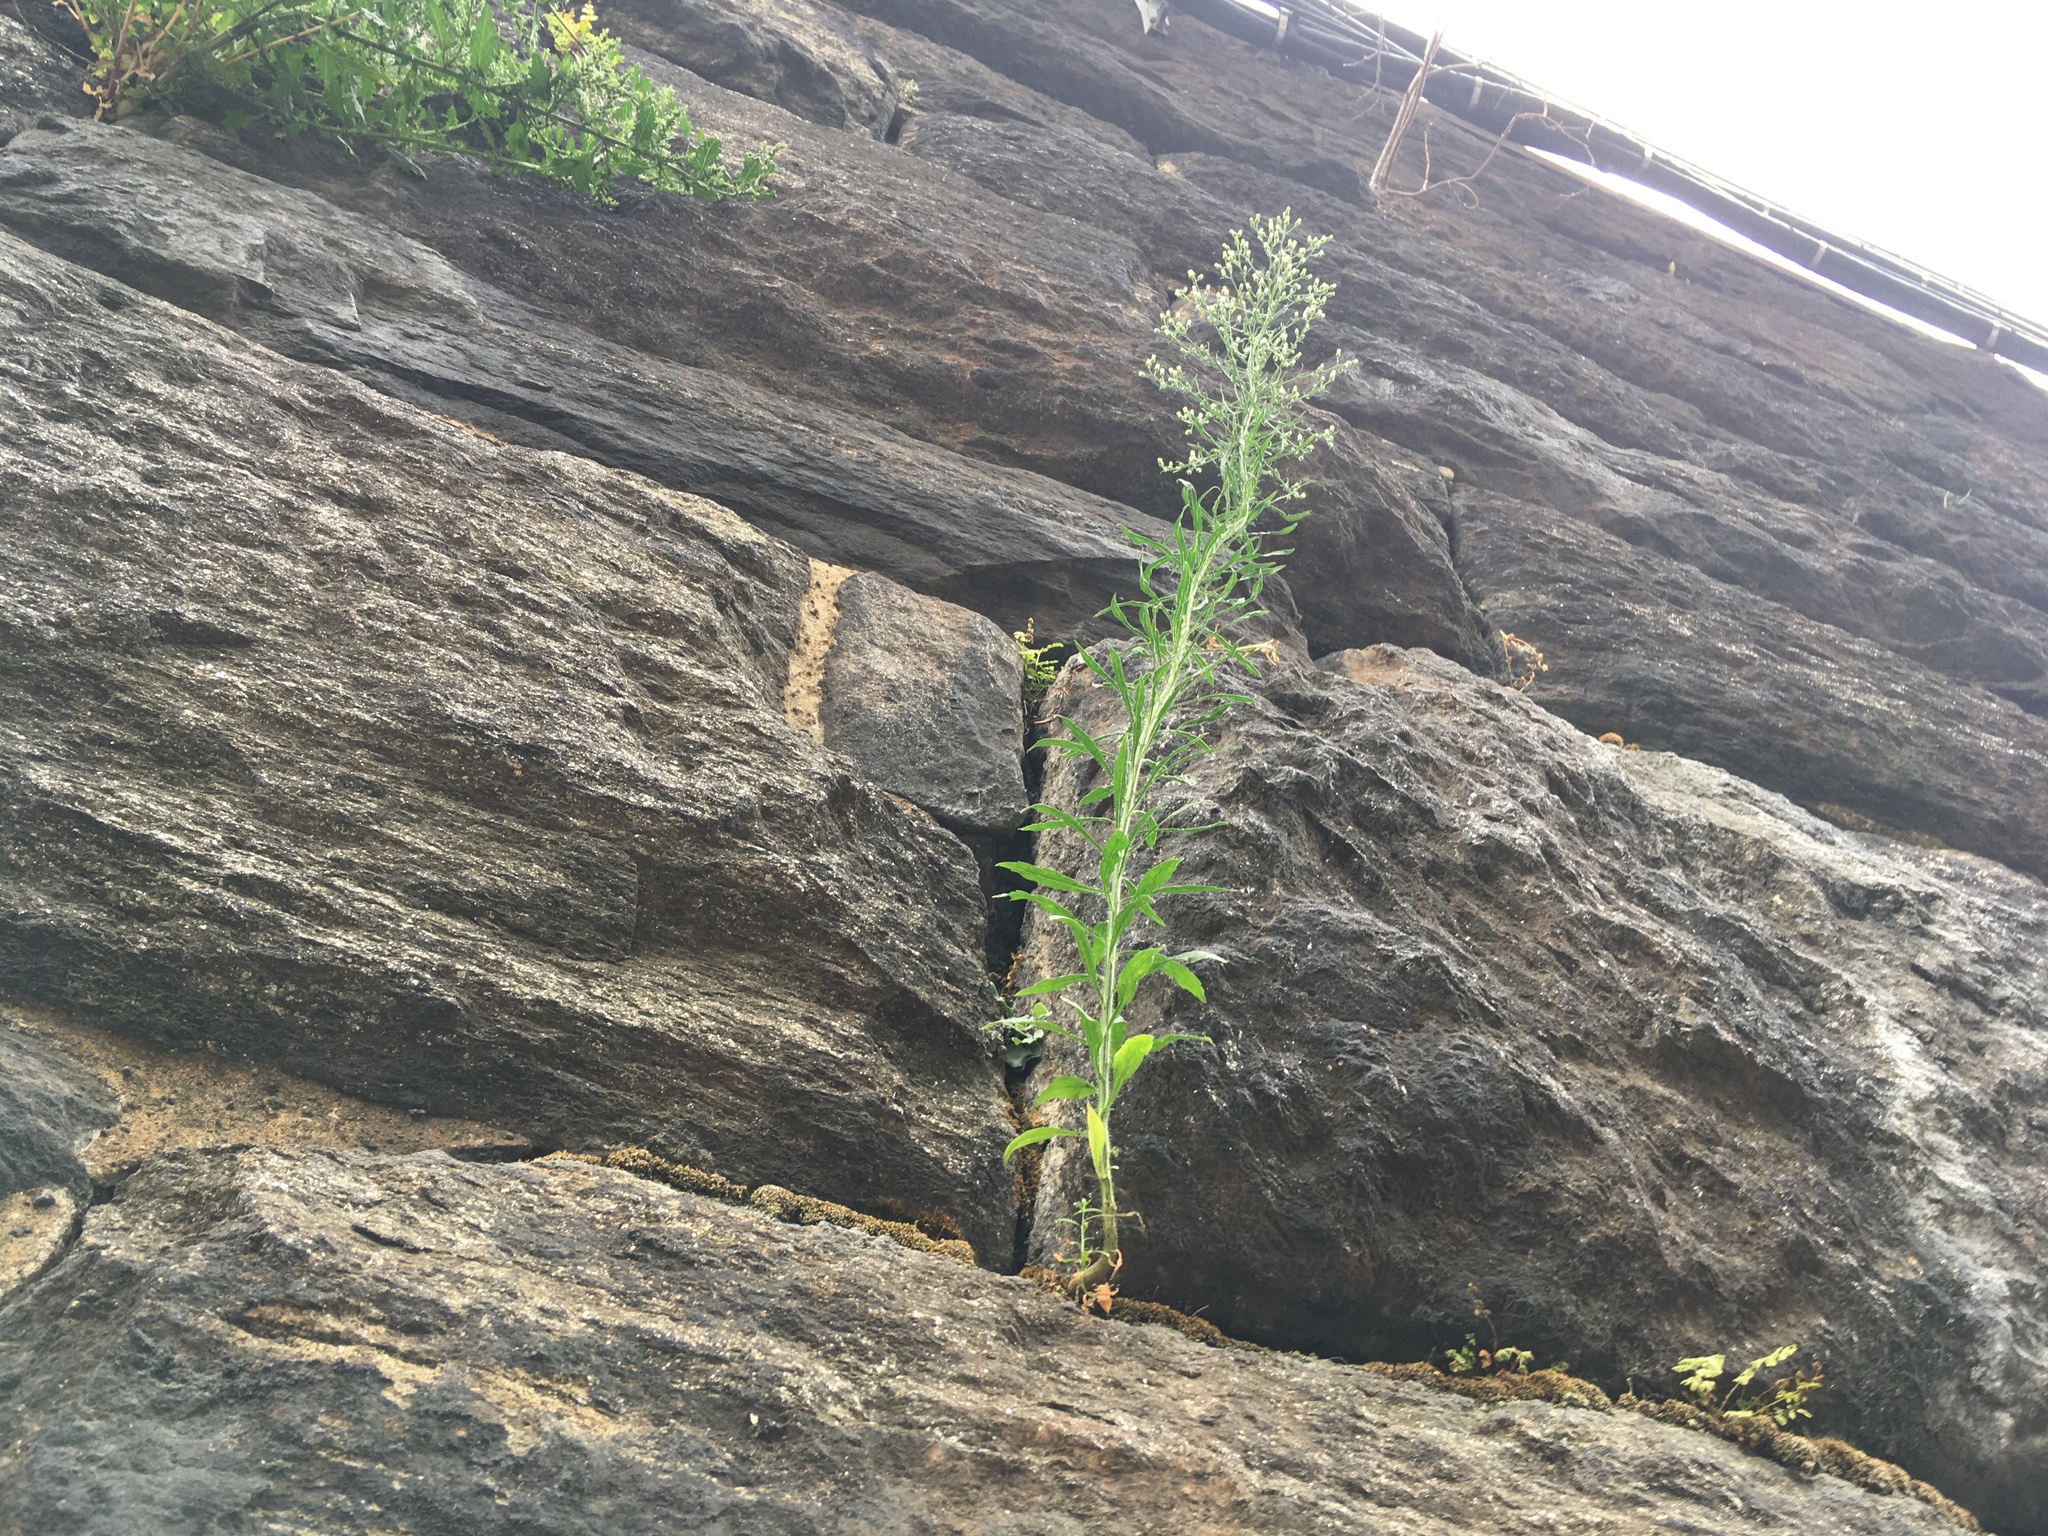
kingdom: Plantae
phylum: Tracheophyta
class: Magnoliopsida
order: Asterales
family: Asteraceae
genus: Erigeron
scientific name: Erigeron canadensis
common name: Canadian fleabane
